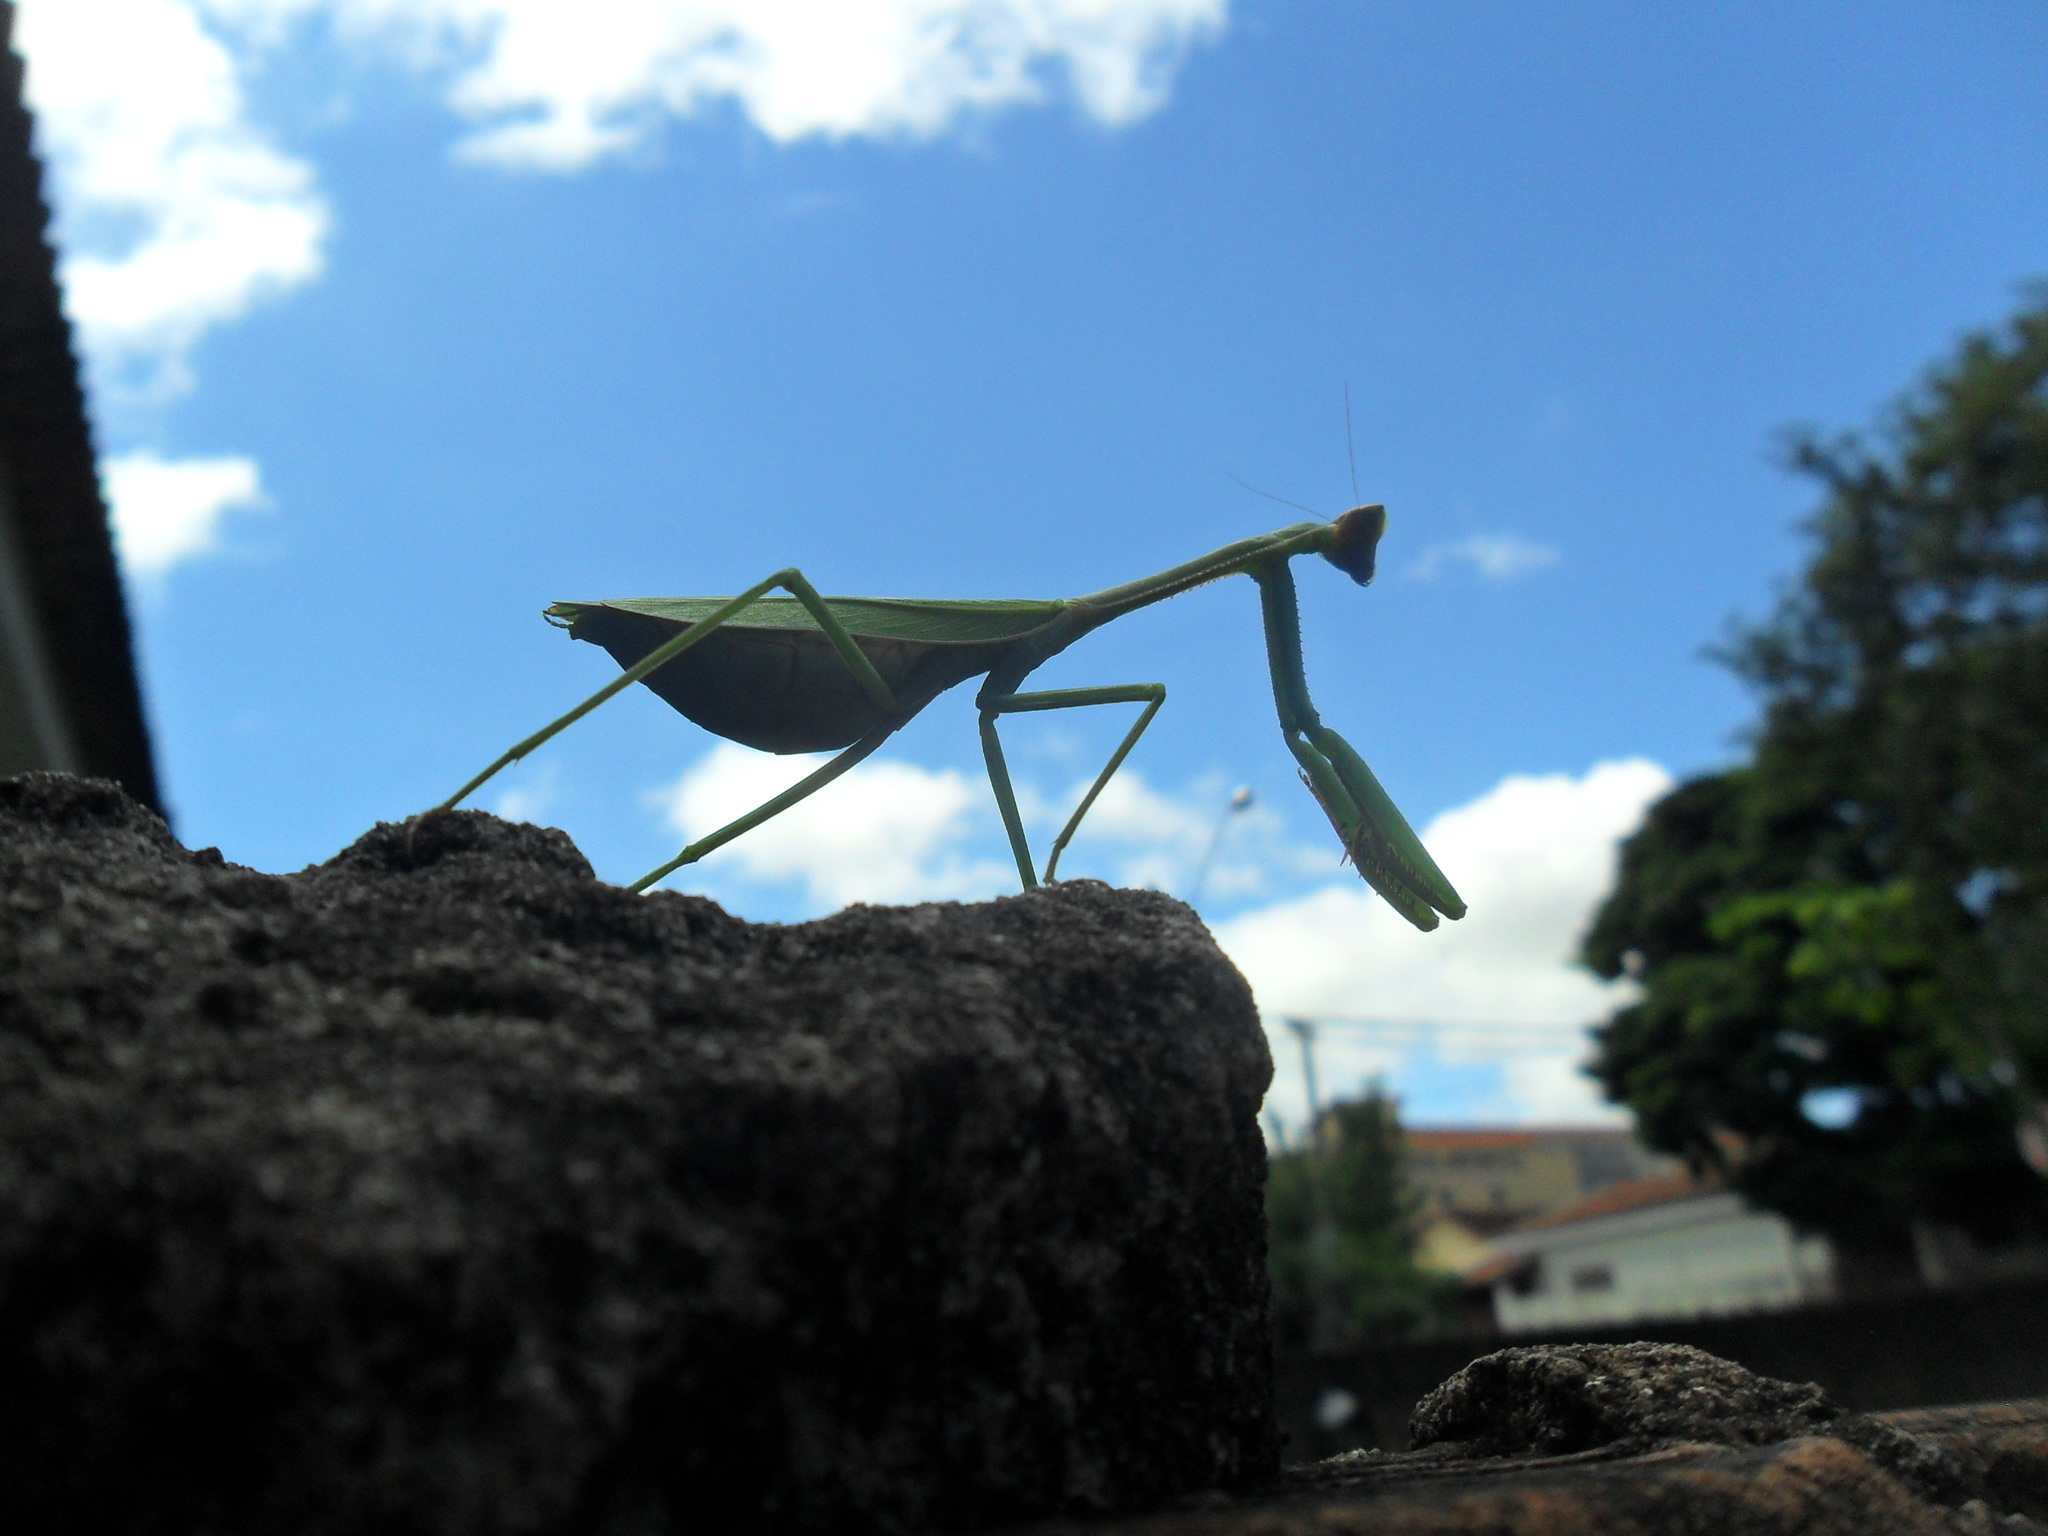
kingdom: Animalia
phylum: Arthropoda
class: Insecta
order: Mantodea
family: Mantidae
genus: Oxyopsis
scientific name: Oxyopsis
